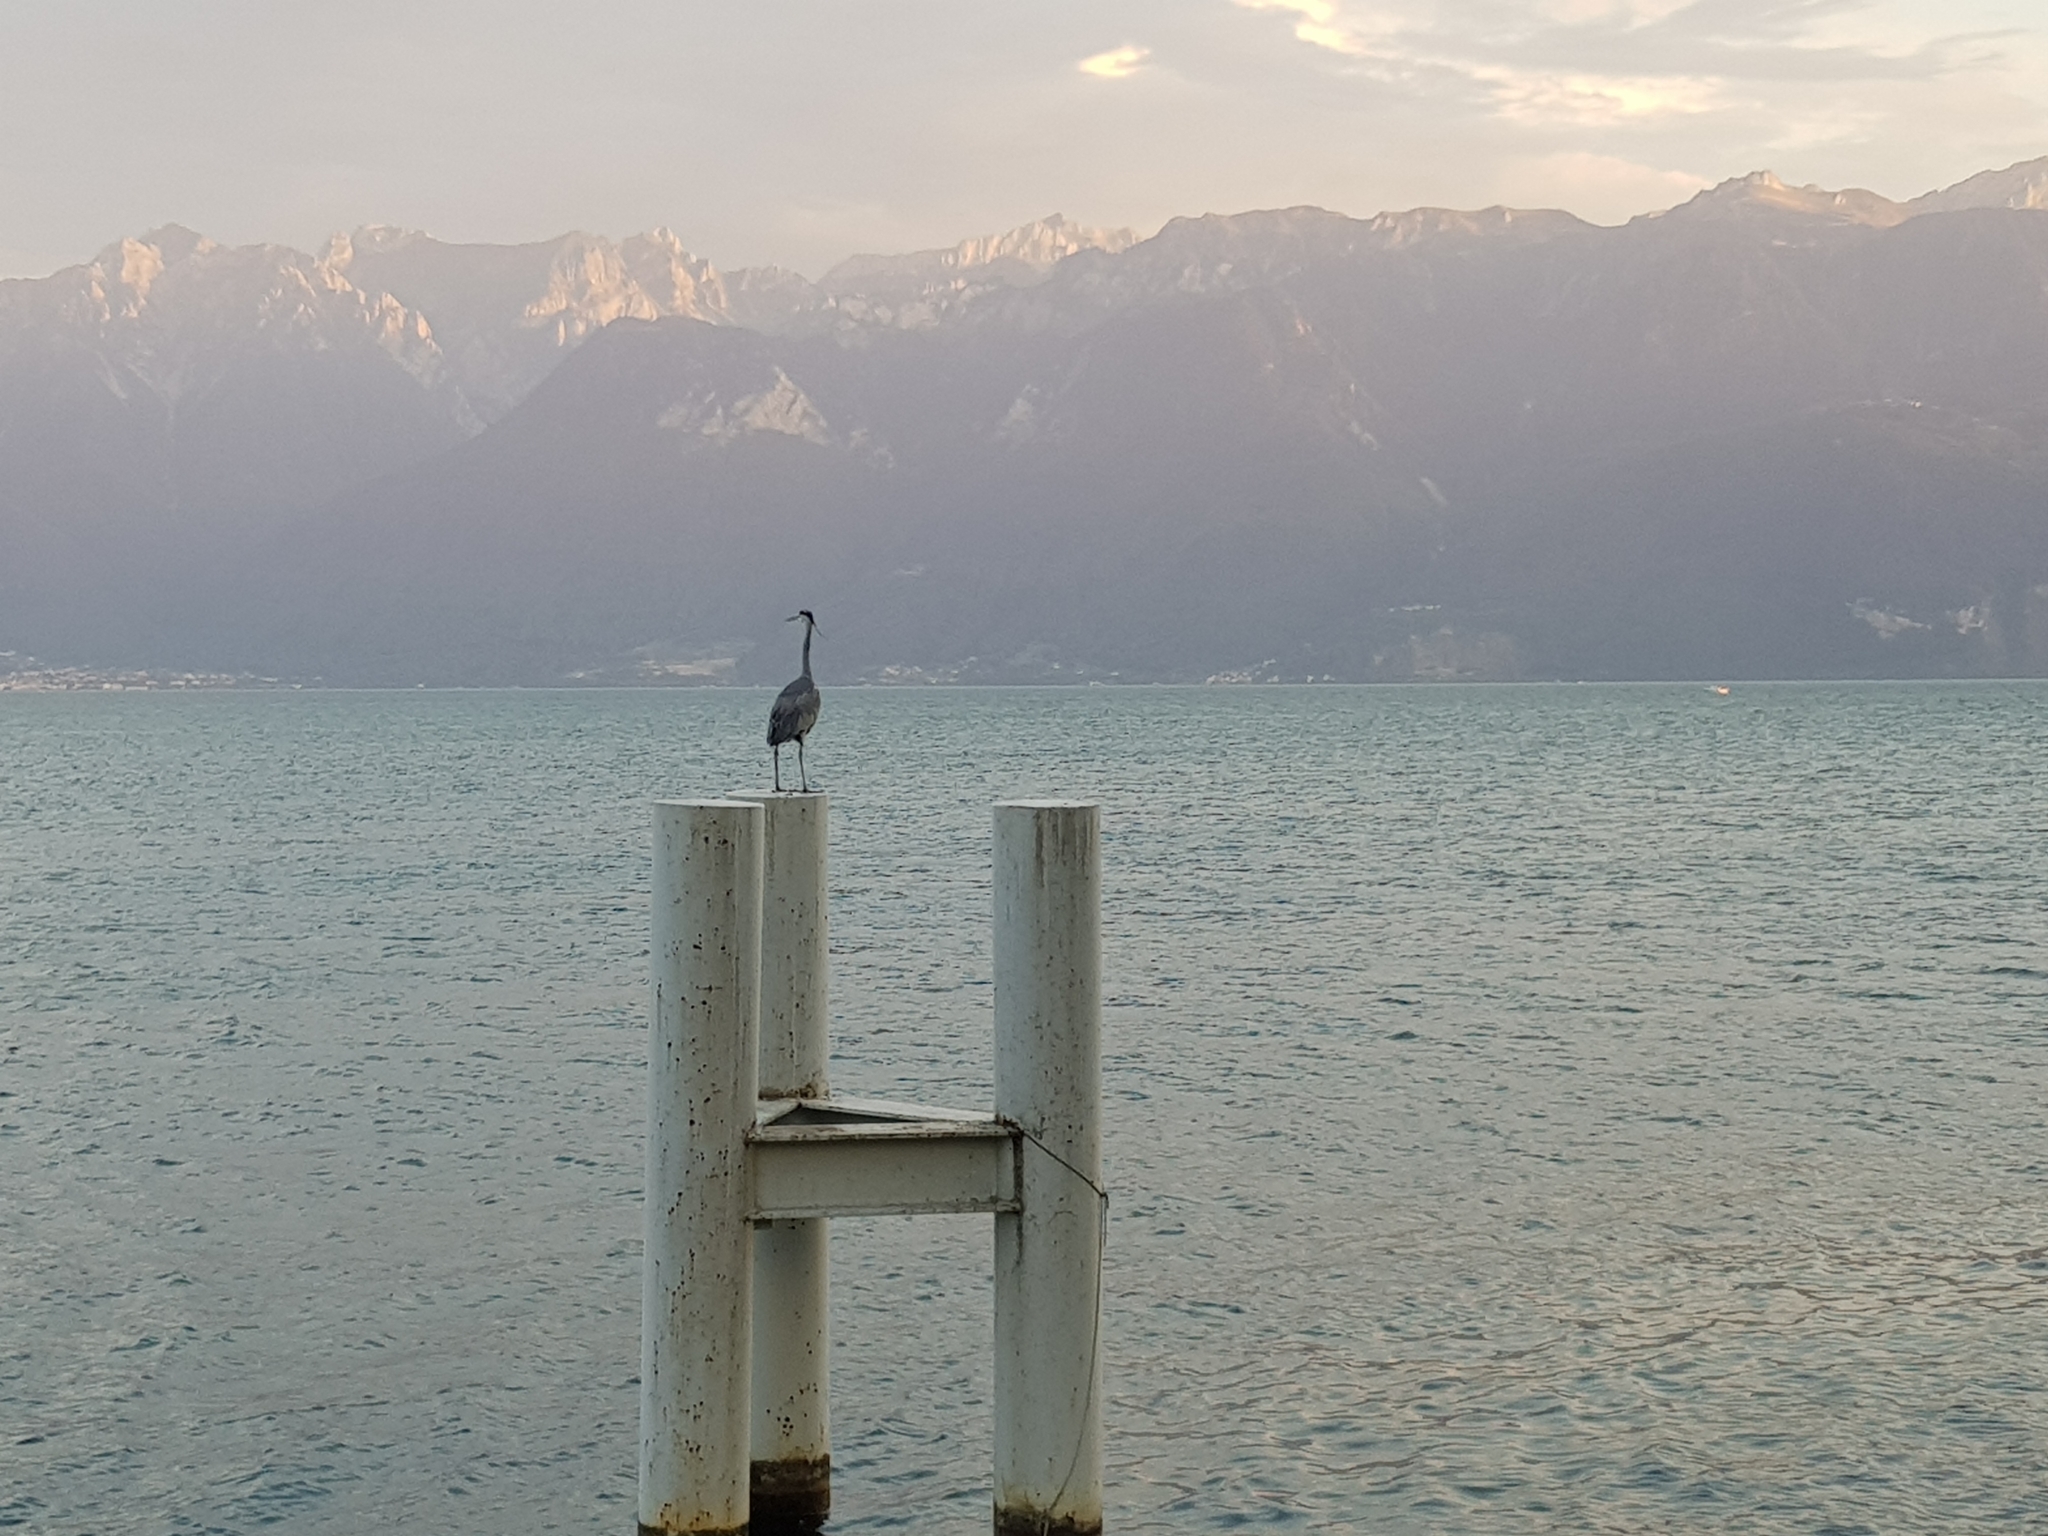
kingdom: Animalia
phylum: Chordata
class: Aves
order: Pelecaniformes
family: Ardeidae
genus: Ardea
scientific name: Ardea cinerea
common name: Grey heron
